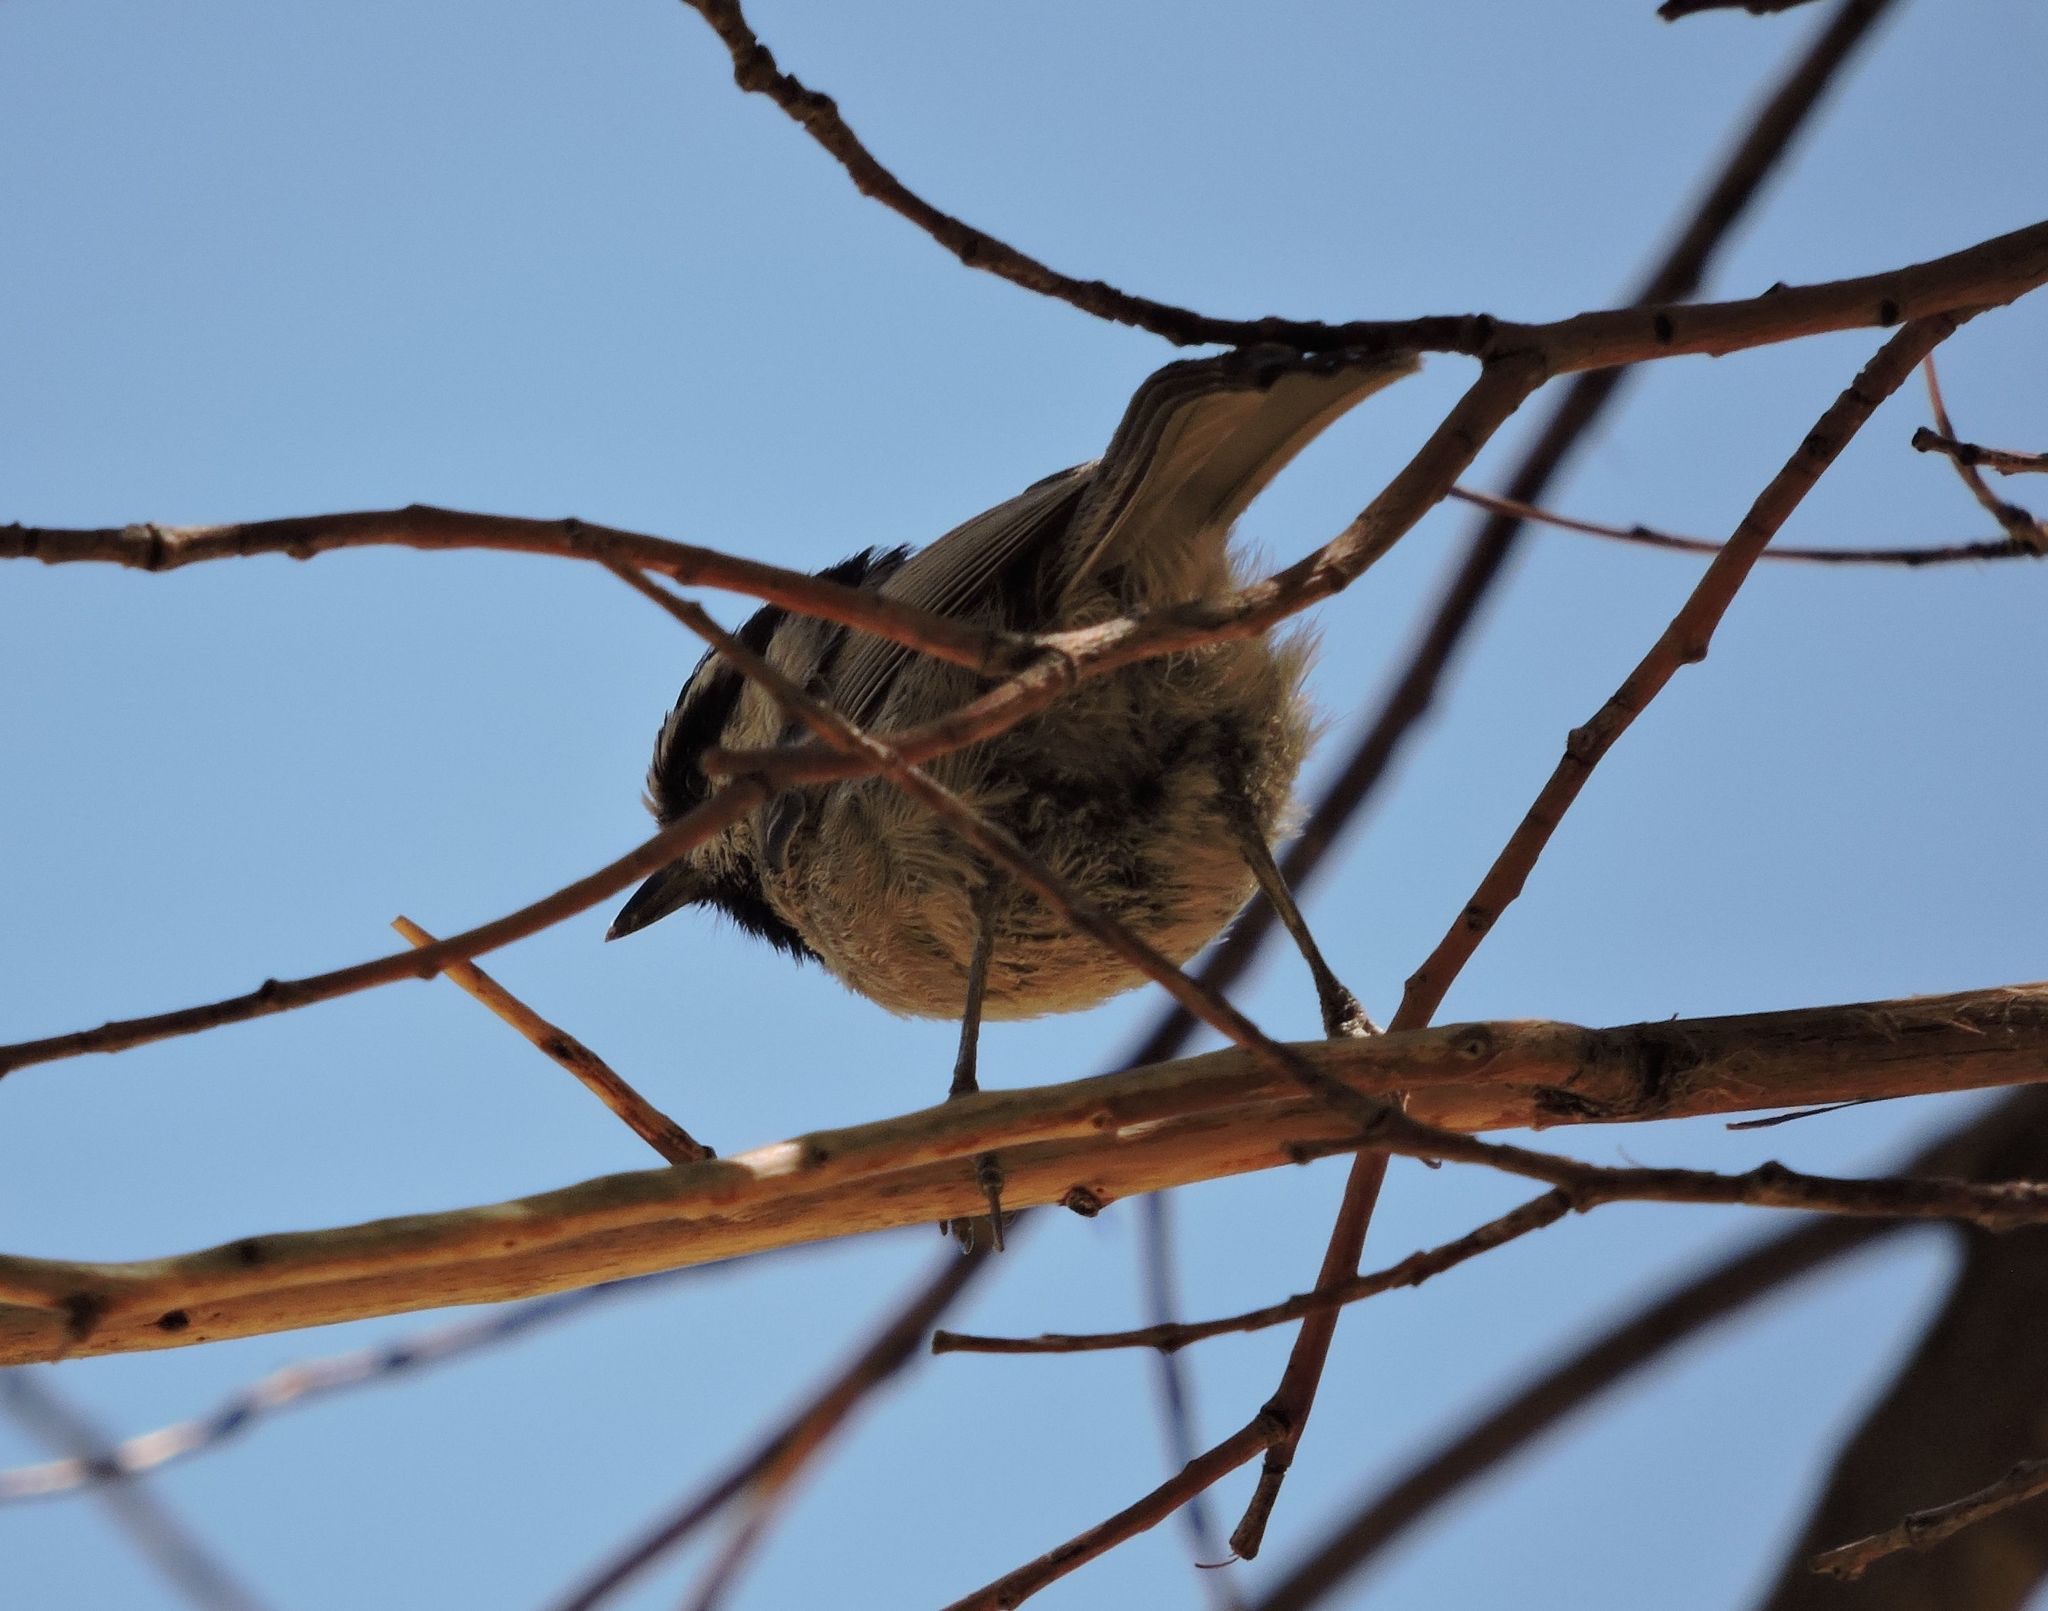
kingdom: Animalia
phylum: Chordata
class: Aves
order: Passeriformes
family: Paridae
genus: Poecile
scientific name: Poecile gambeli
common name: Mountain chickadee
